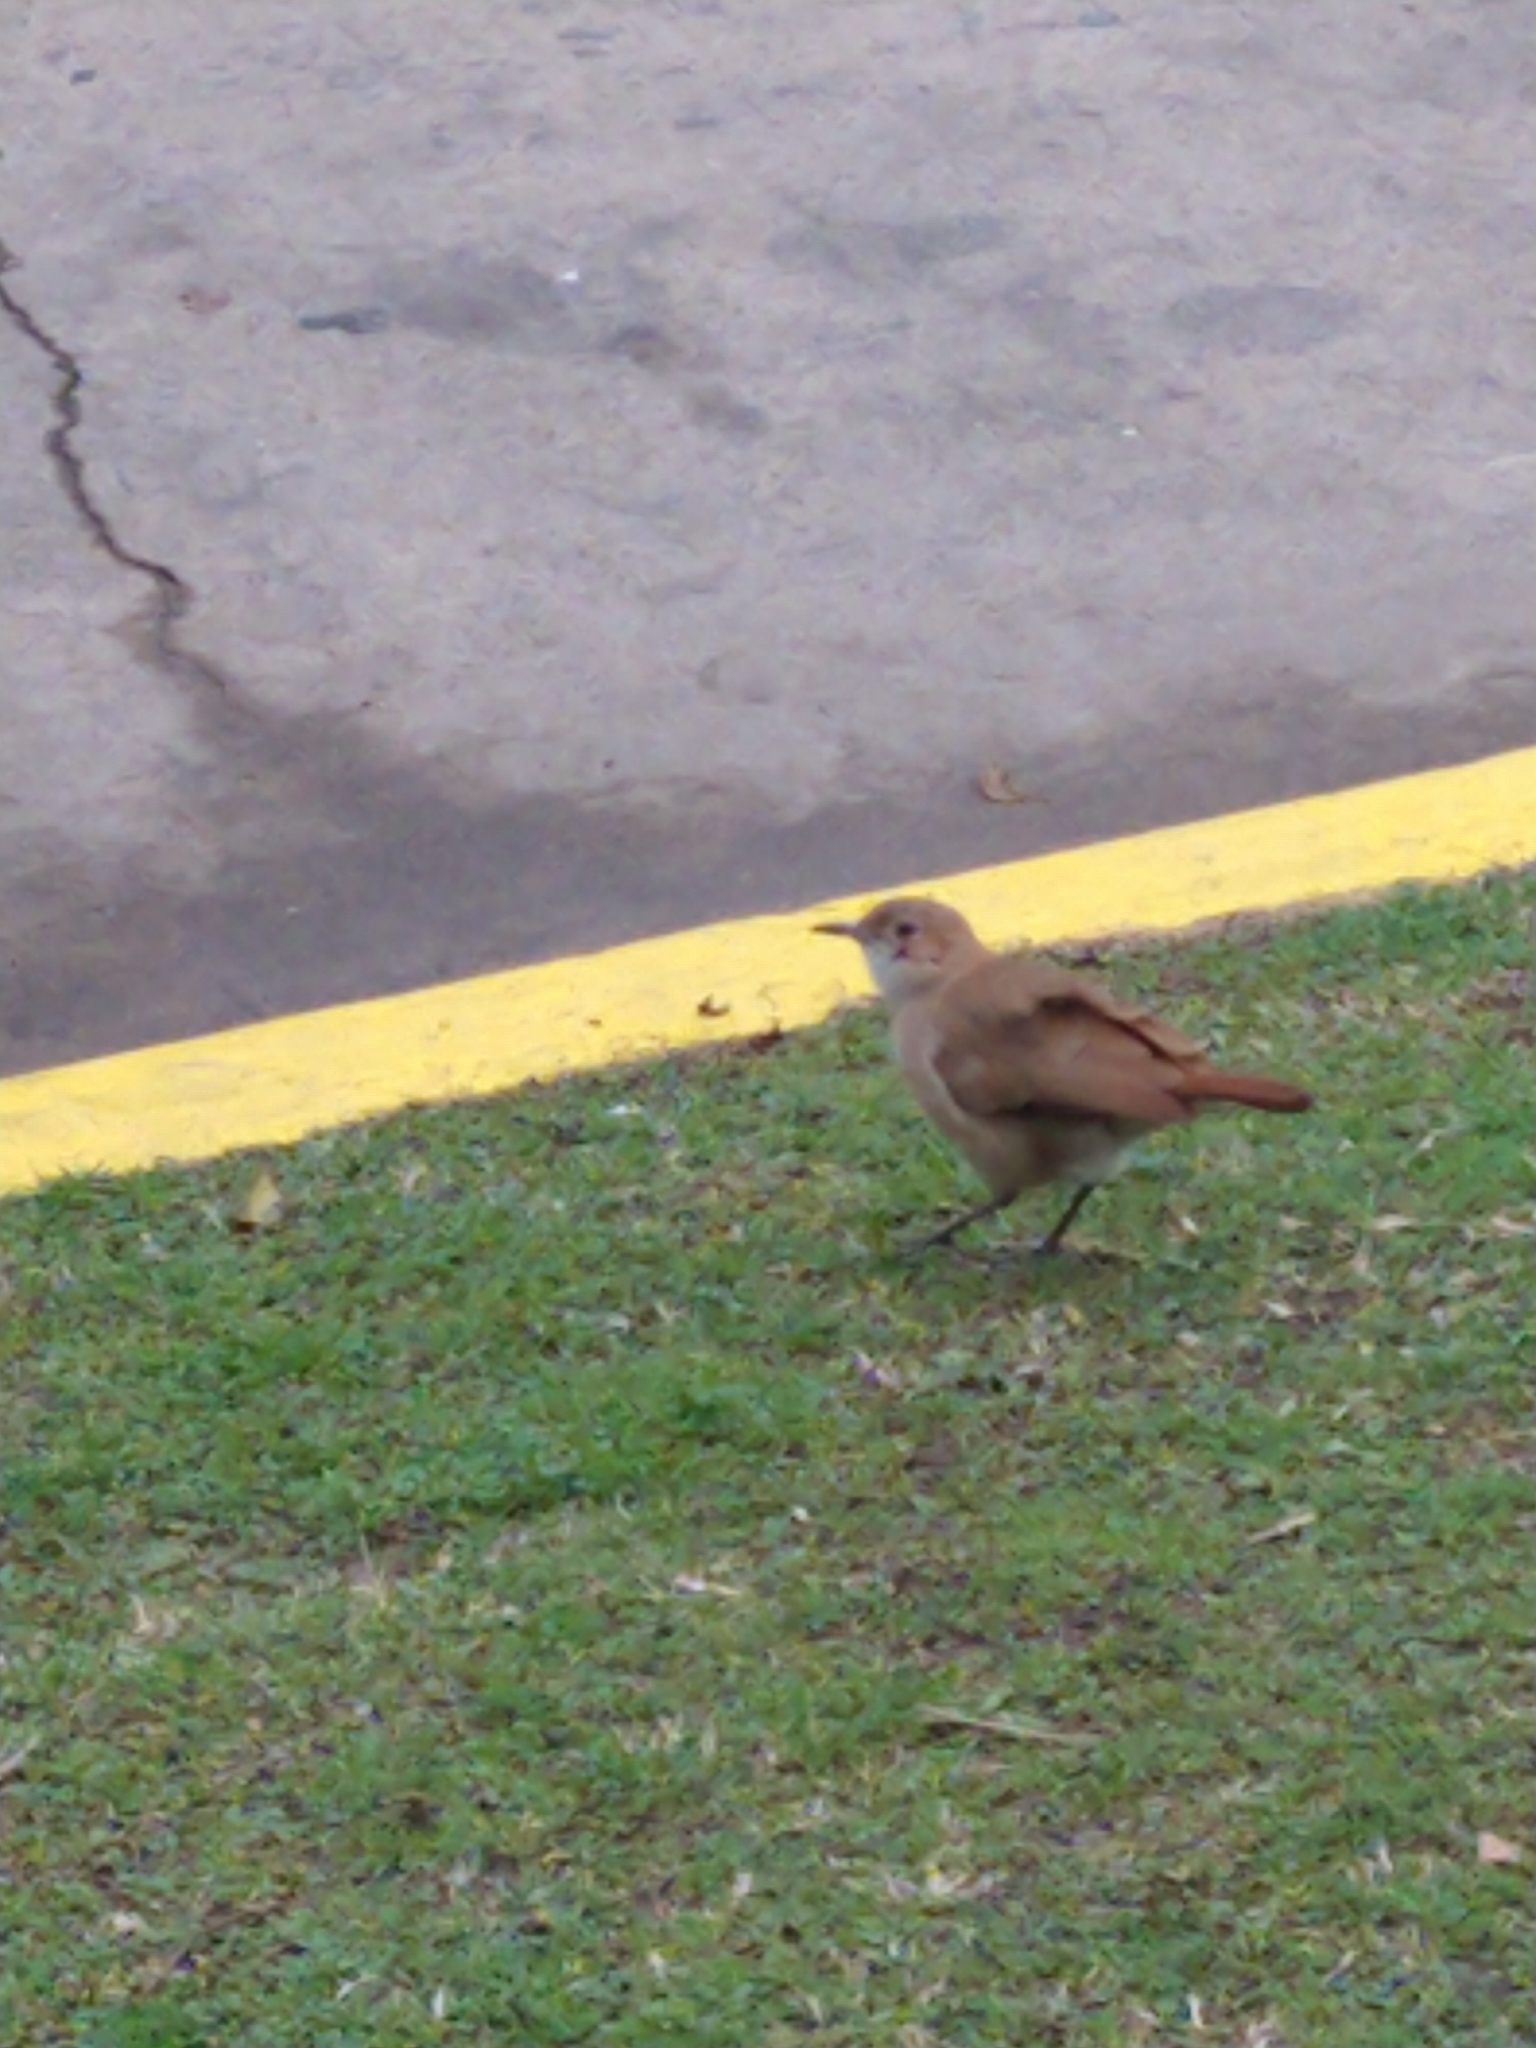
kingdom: Animalia
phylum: Chordata
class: Aves
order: Passeriformes
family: Furnariidae
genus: Furnarius
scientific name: Furnarius rufus
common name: Rufous hornero
